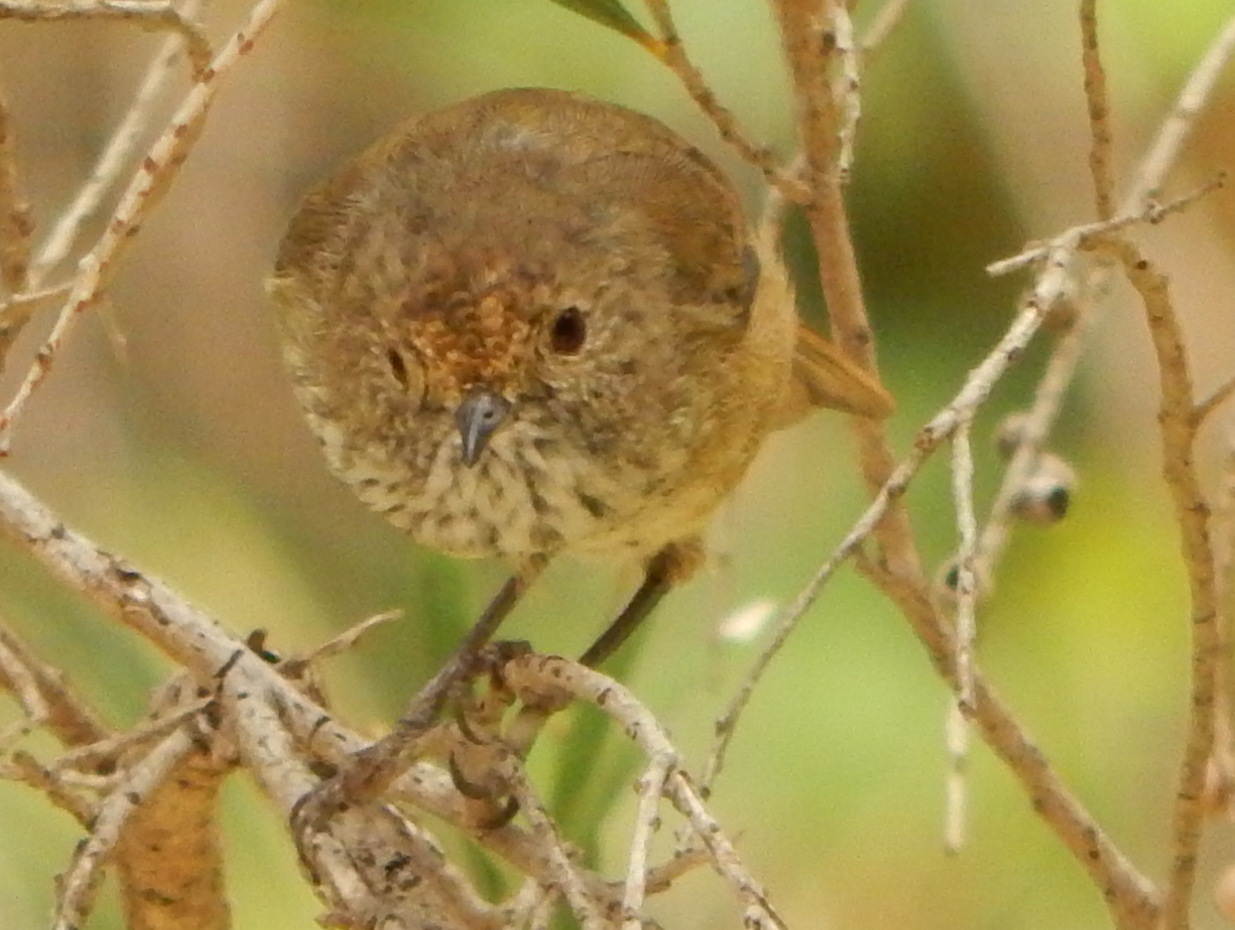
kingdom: Animalia
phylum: Chordata
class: Aves
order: Passeriformes
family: Acanthizidae
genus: Acanthiza
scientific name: Acanthiza pusilla
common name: Brown thornbill
